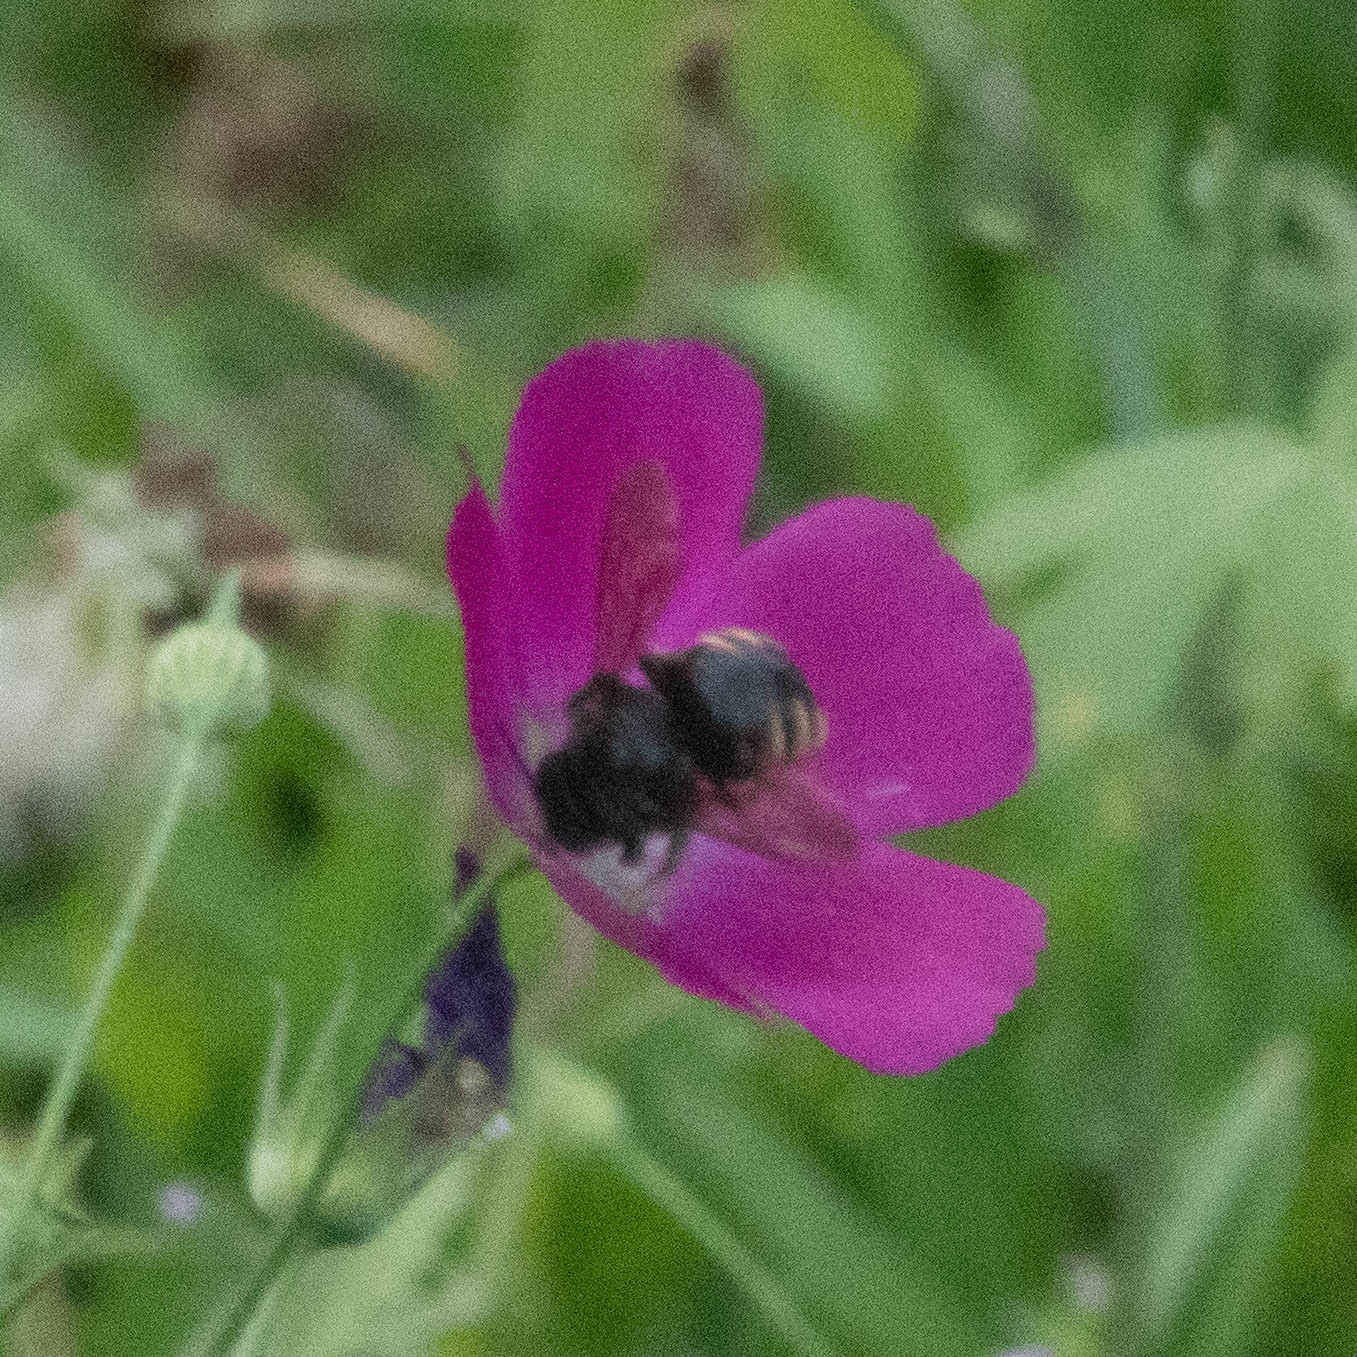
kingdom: Animalia
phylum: Arthropoda
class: Insecta
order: Hymenoptera
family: Apidae
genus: Xylocopa
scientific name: Xylocopa tabaniformis
